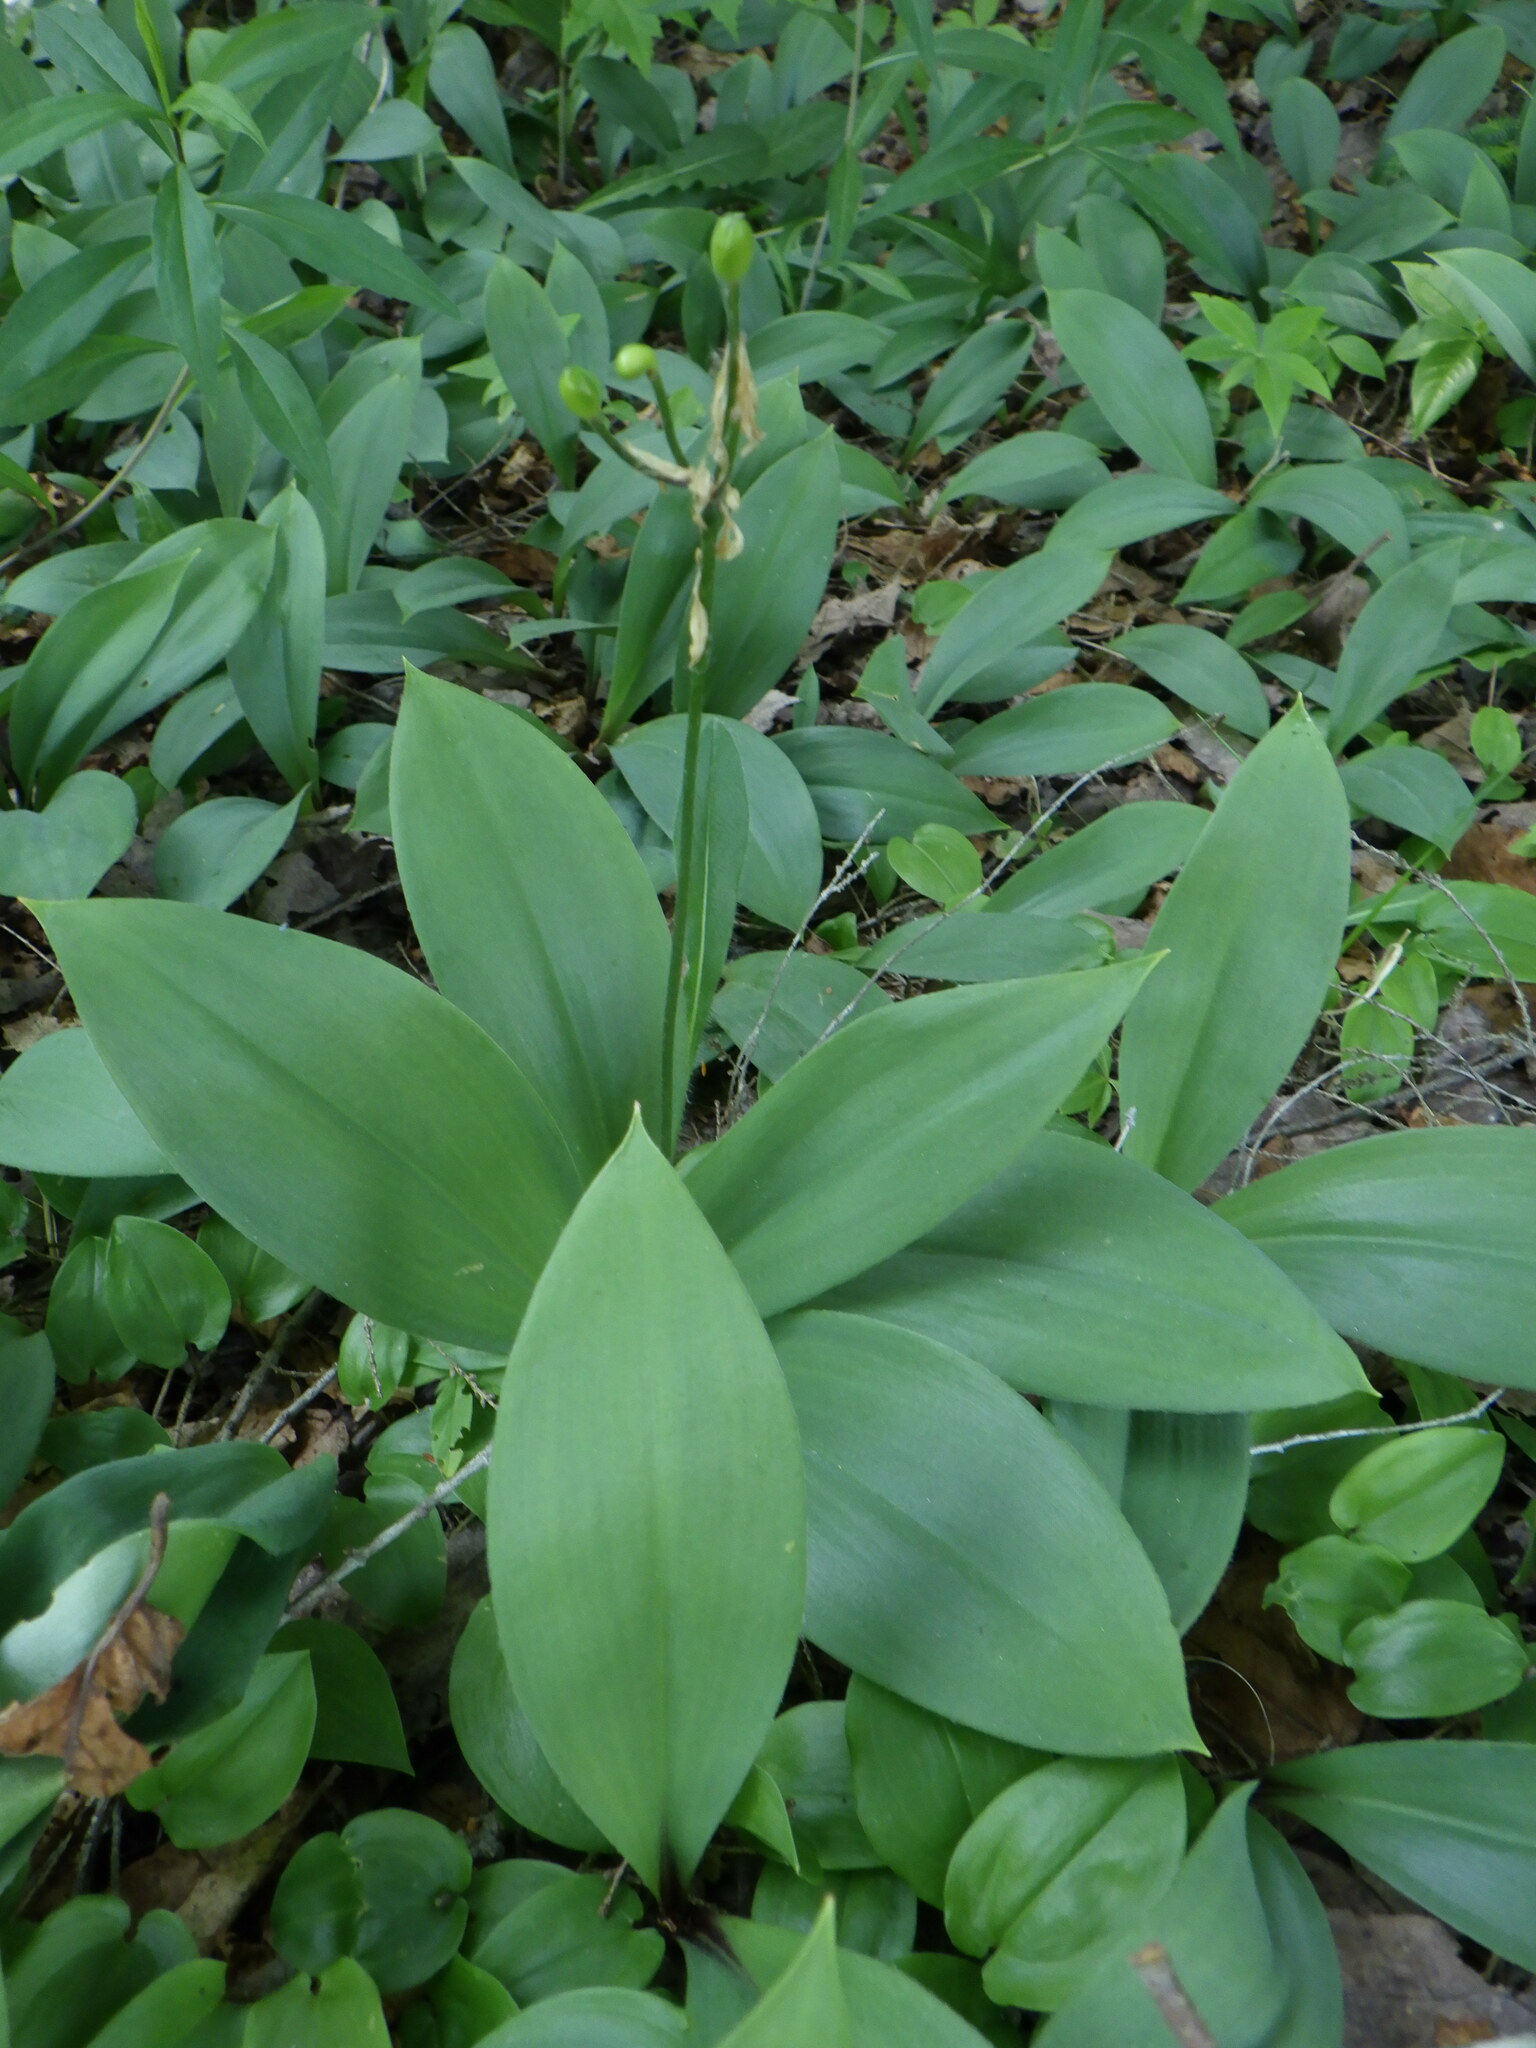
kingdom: Plantae
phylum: Tracheophyta
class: Liliopsida
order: Liliales
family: Liliaceae
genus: Clintonia
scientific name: Clintonia borealis
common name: Yellow clintonia
